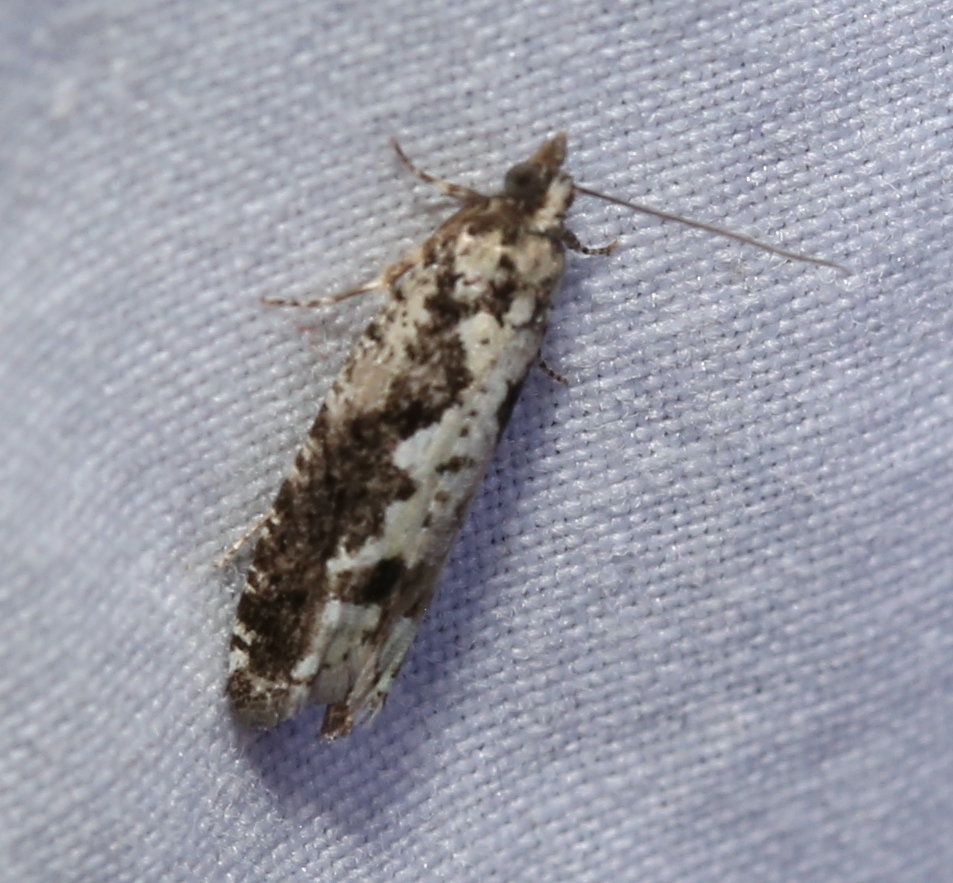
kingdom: Animalia
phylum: Arthropoda
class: Insecta
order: Lepidoptera
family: Tortricidae
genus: Chimoptesis
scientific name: Chimoptesis pennsylvaniana
